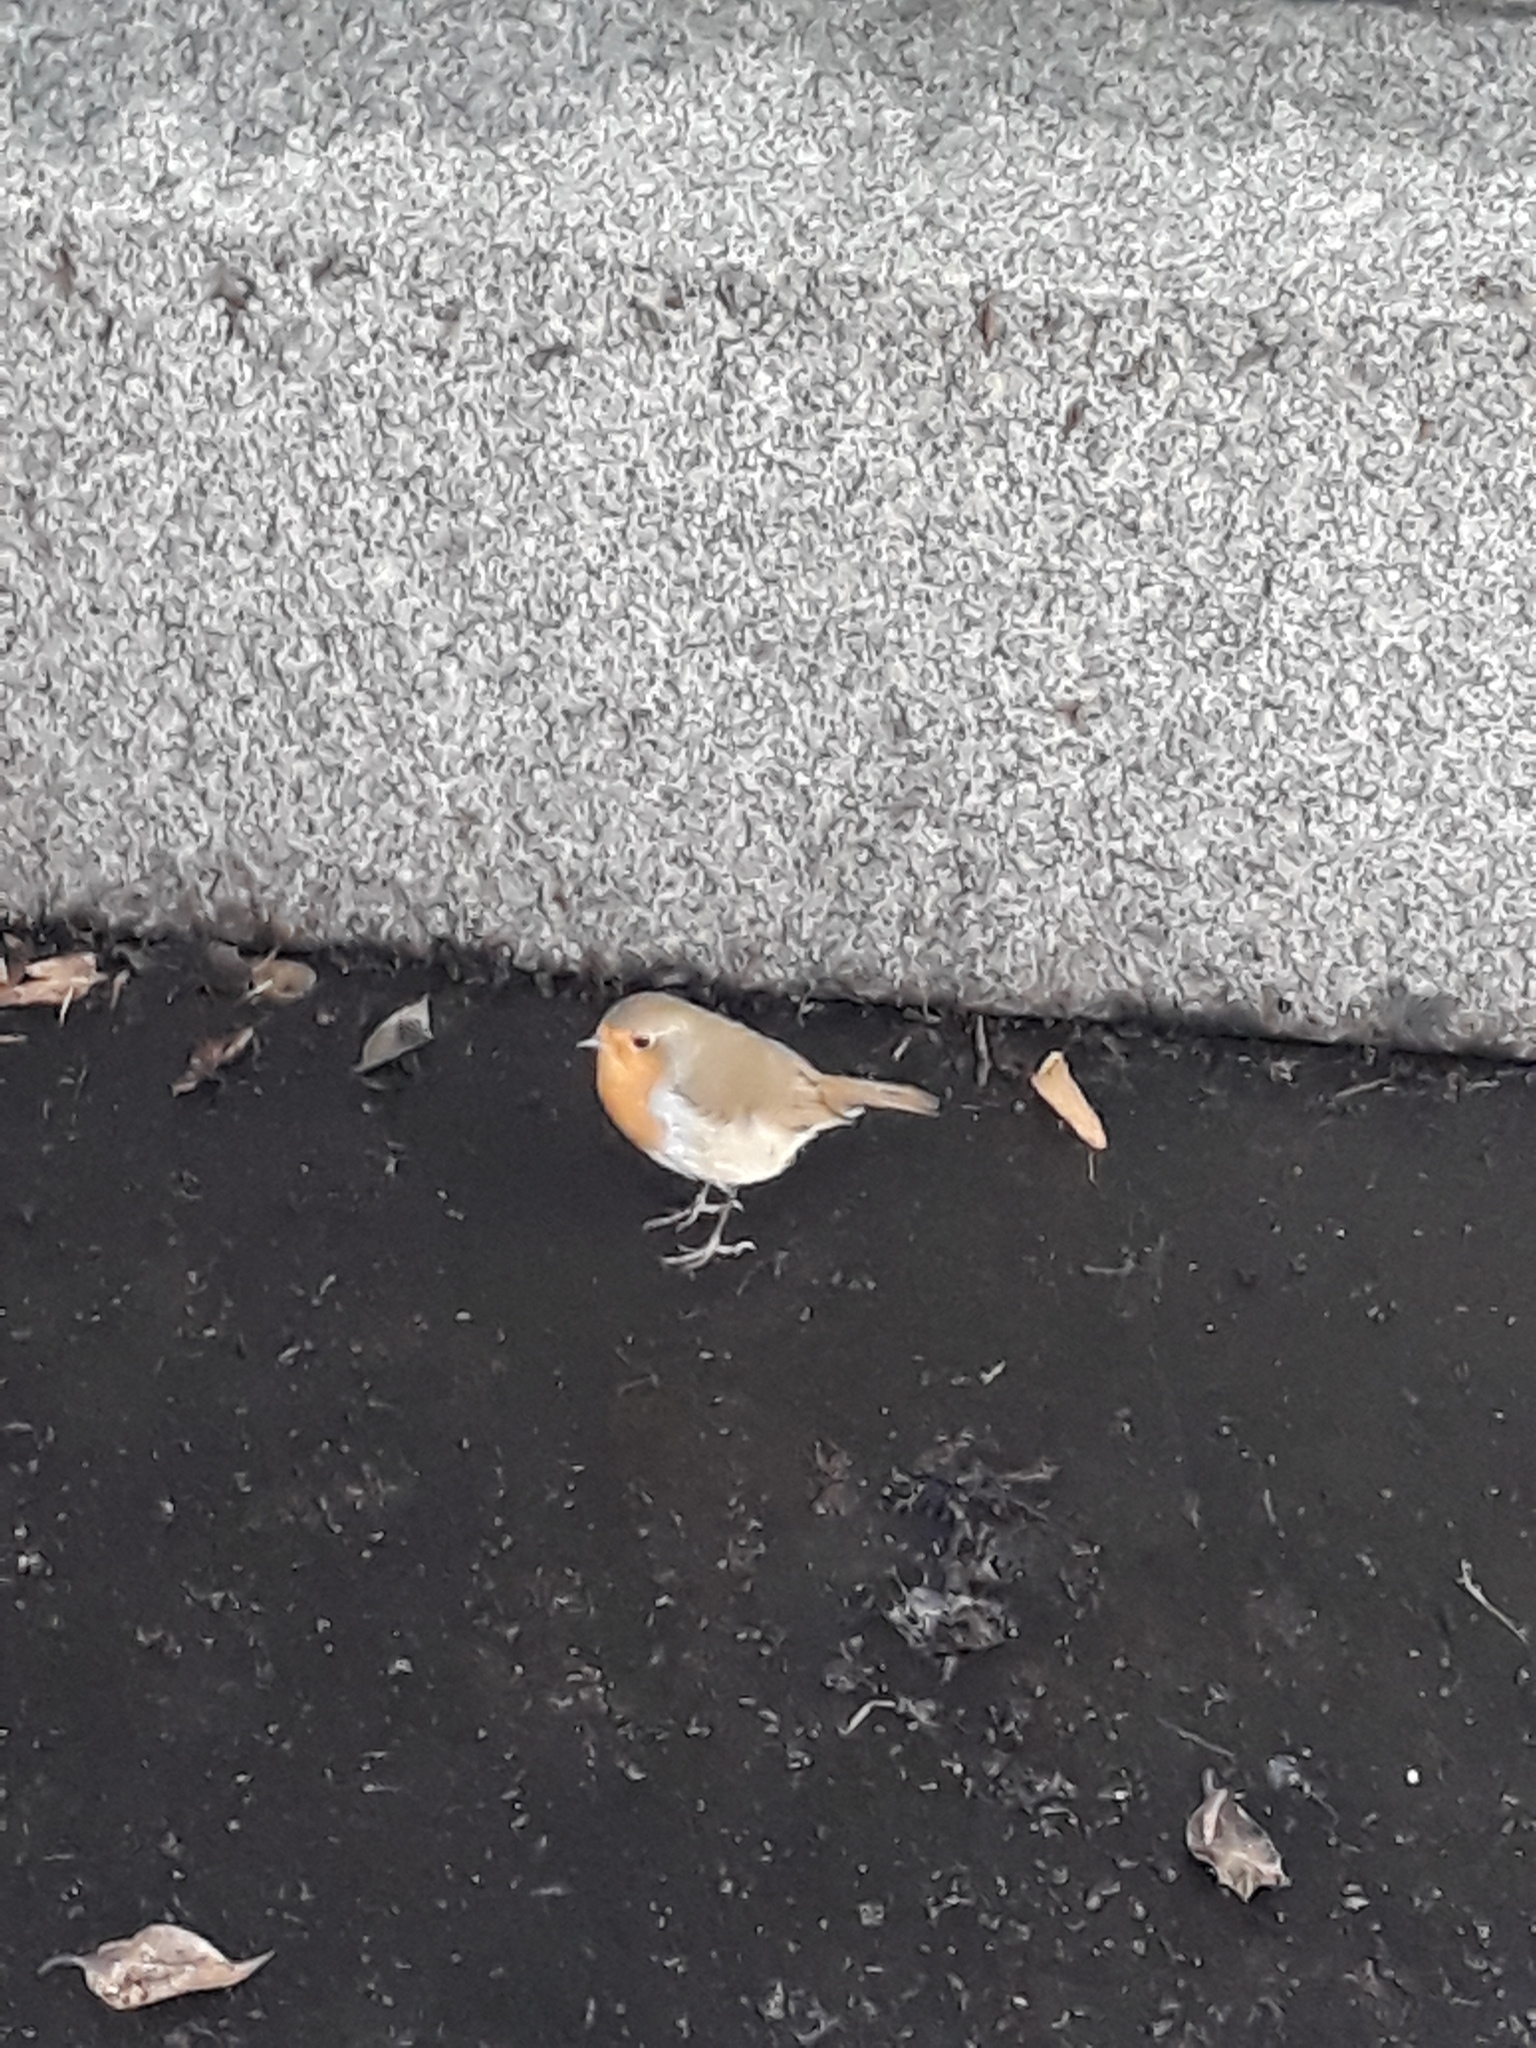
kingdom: Animalia
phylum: Chordata
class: Aves
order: Passeriformes
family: Muscicapidae
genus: Erithacus
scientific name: Erithacus rubecula
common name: European robin
